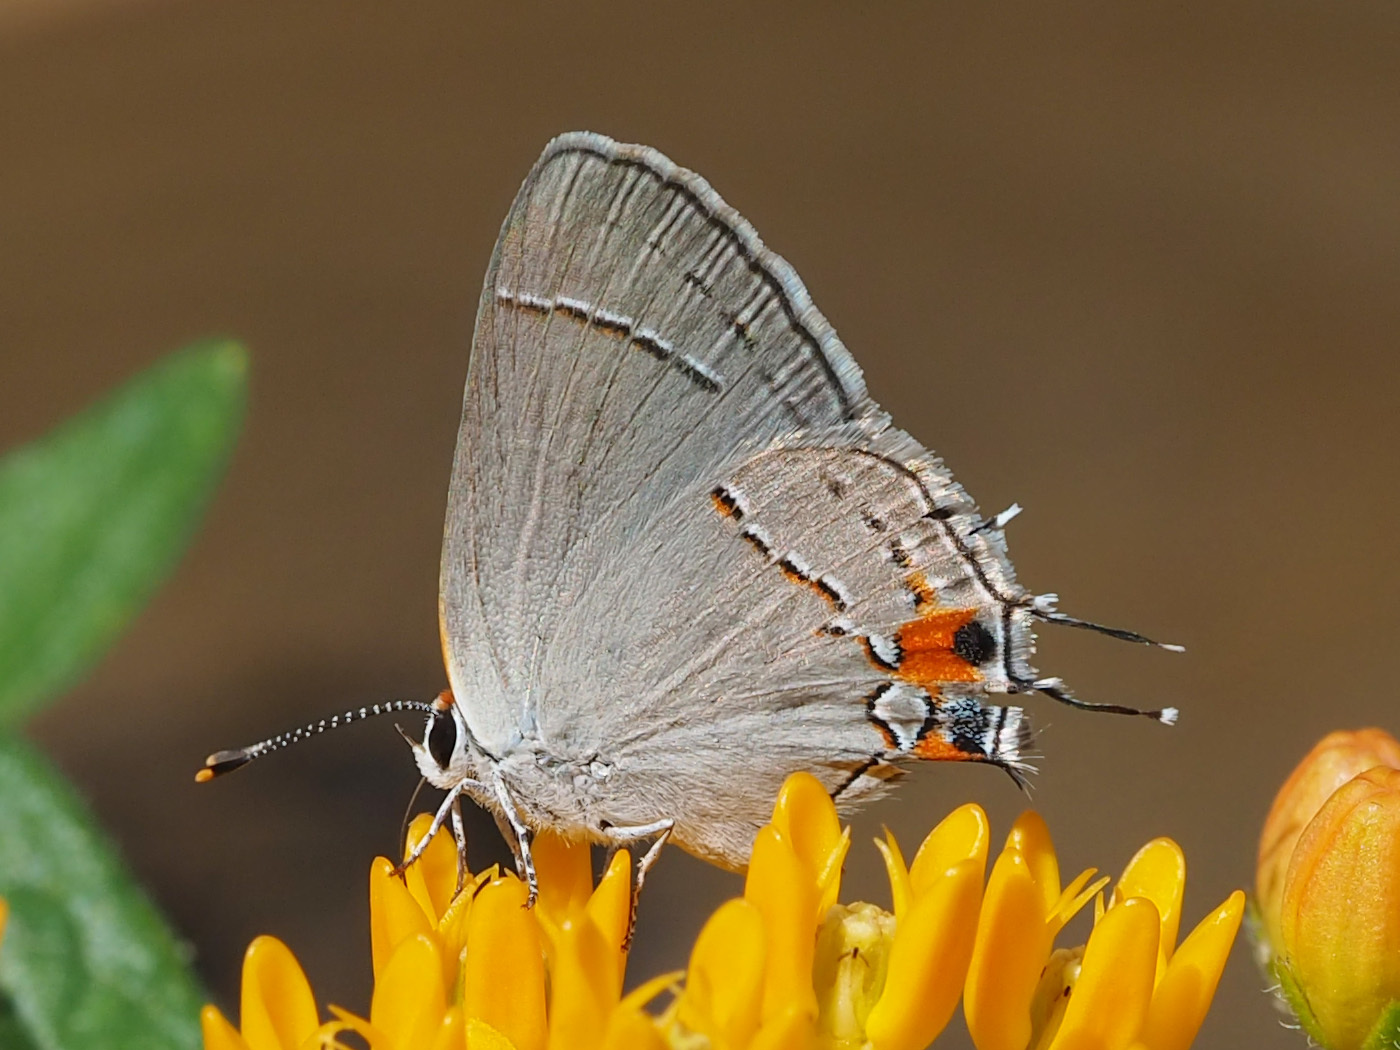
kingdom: Animalia
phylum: Arthropoda
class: Insecta
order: Lepidoptera
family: Lycaenidae
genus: Strymon
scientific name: Strymon melinus
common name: Gray hairstreak
